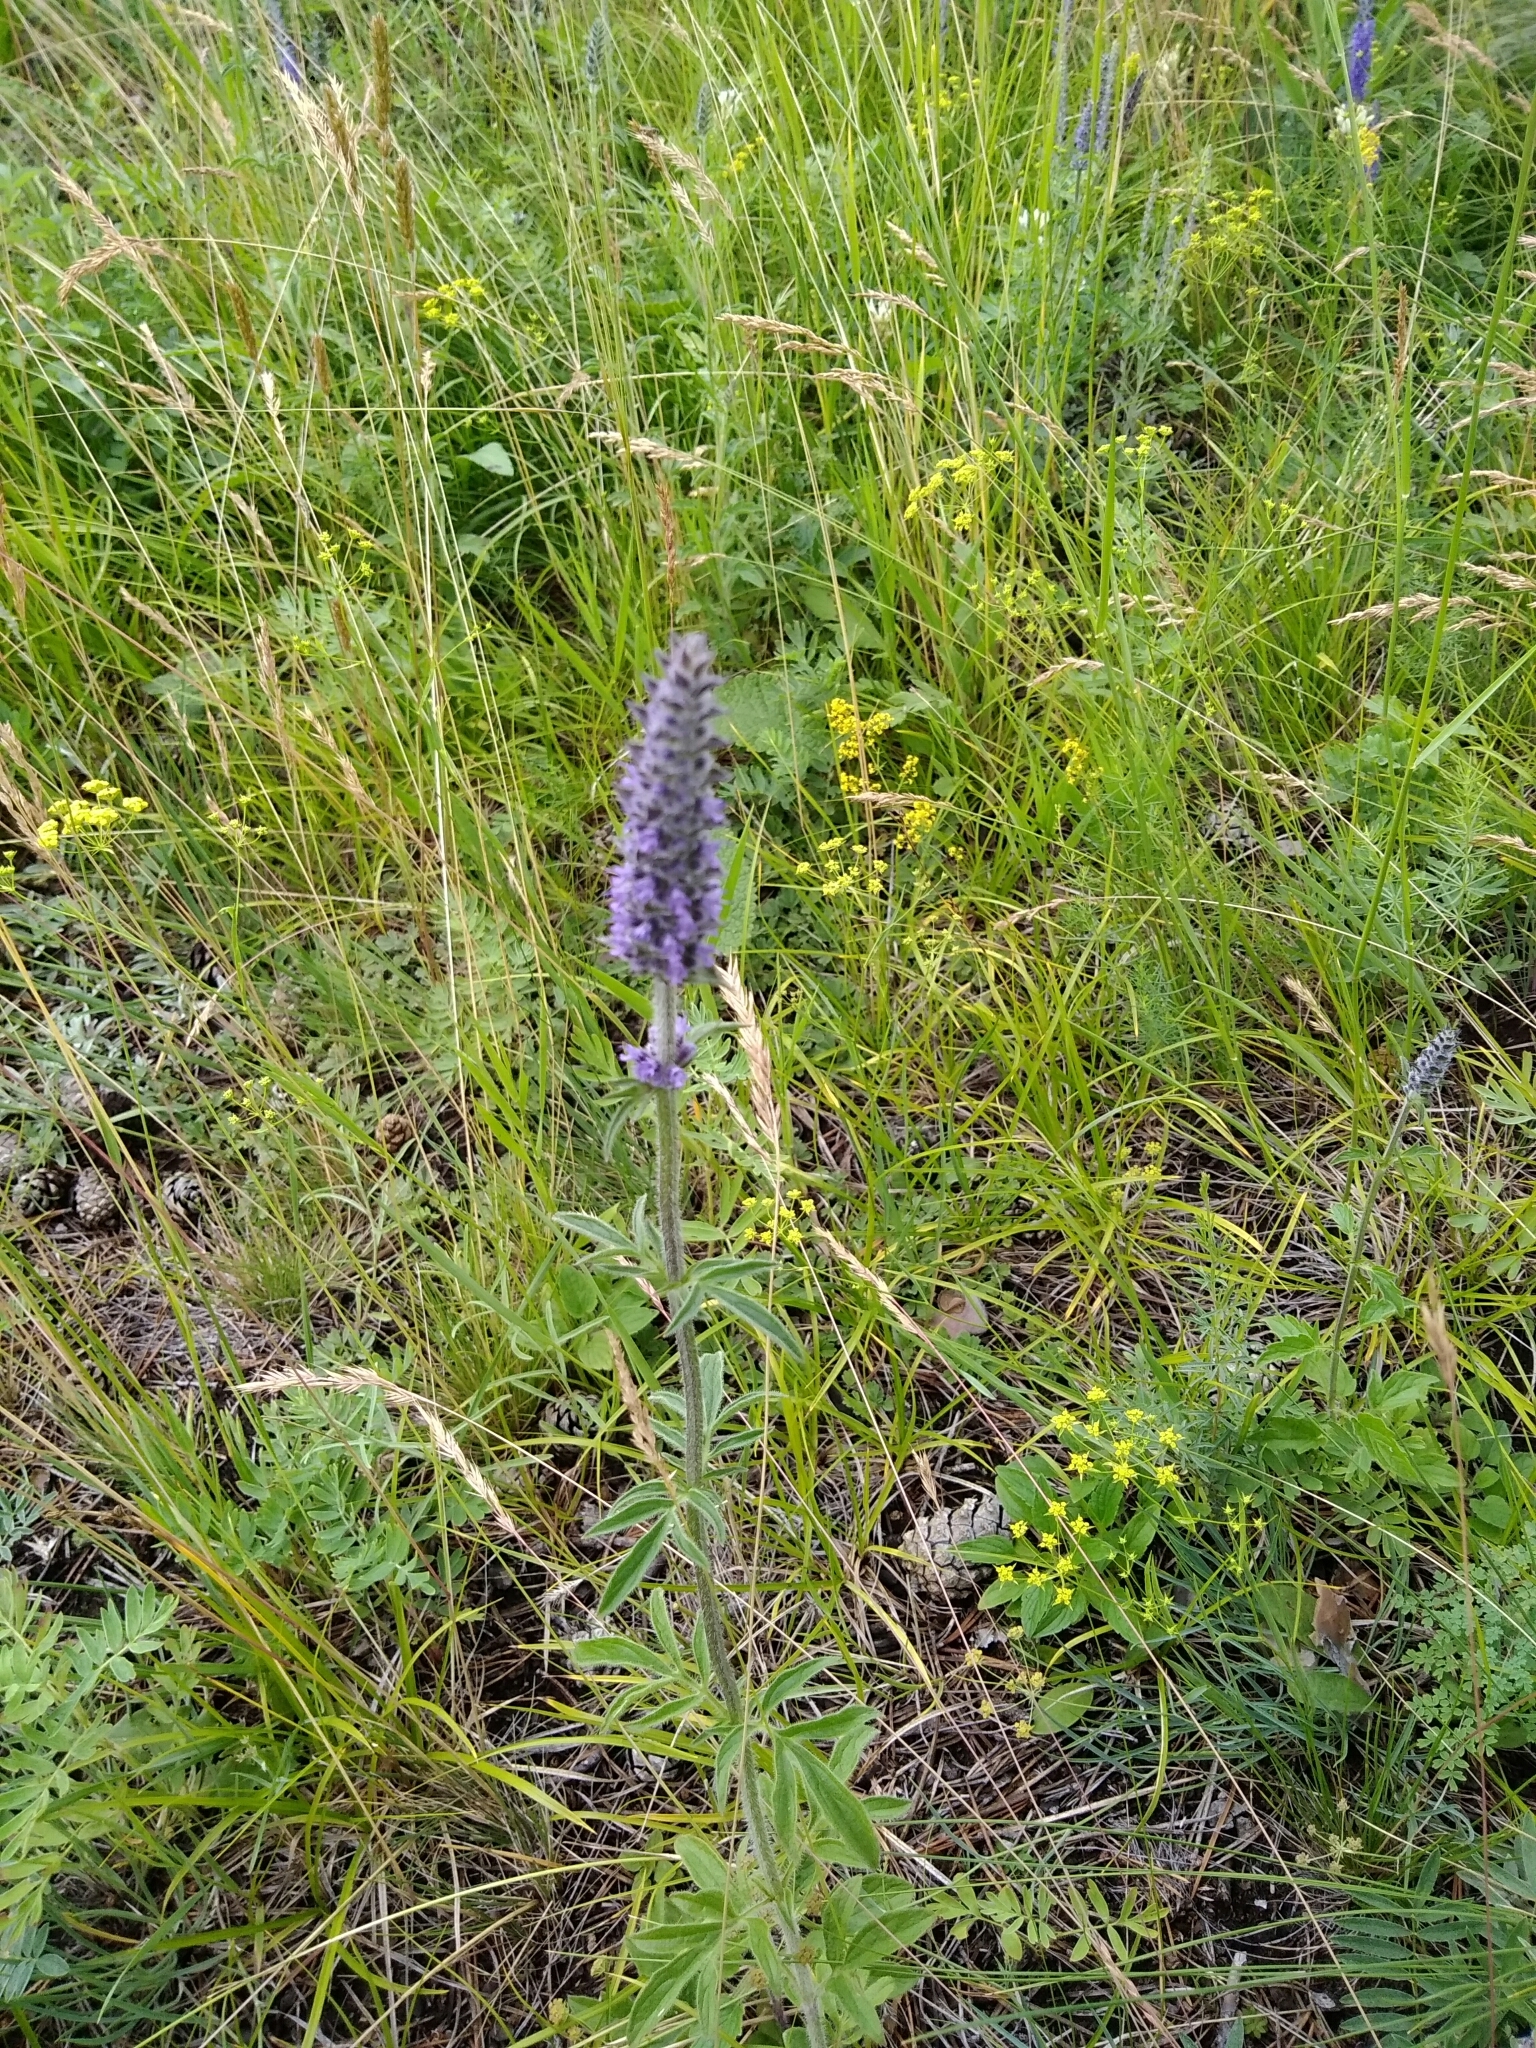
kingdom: Plantae
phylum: Tracheophyta
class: Magnoliopsida
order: Lamiales
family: Lamiaceae
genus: Nepeta
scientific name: Nepeta multifida
